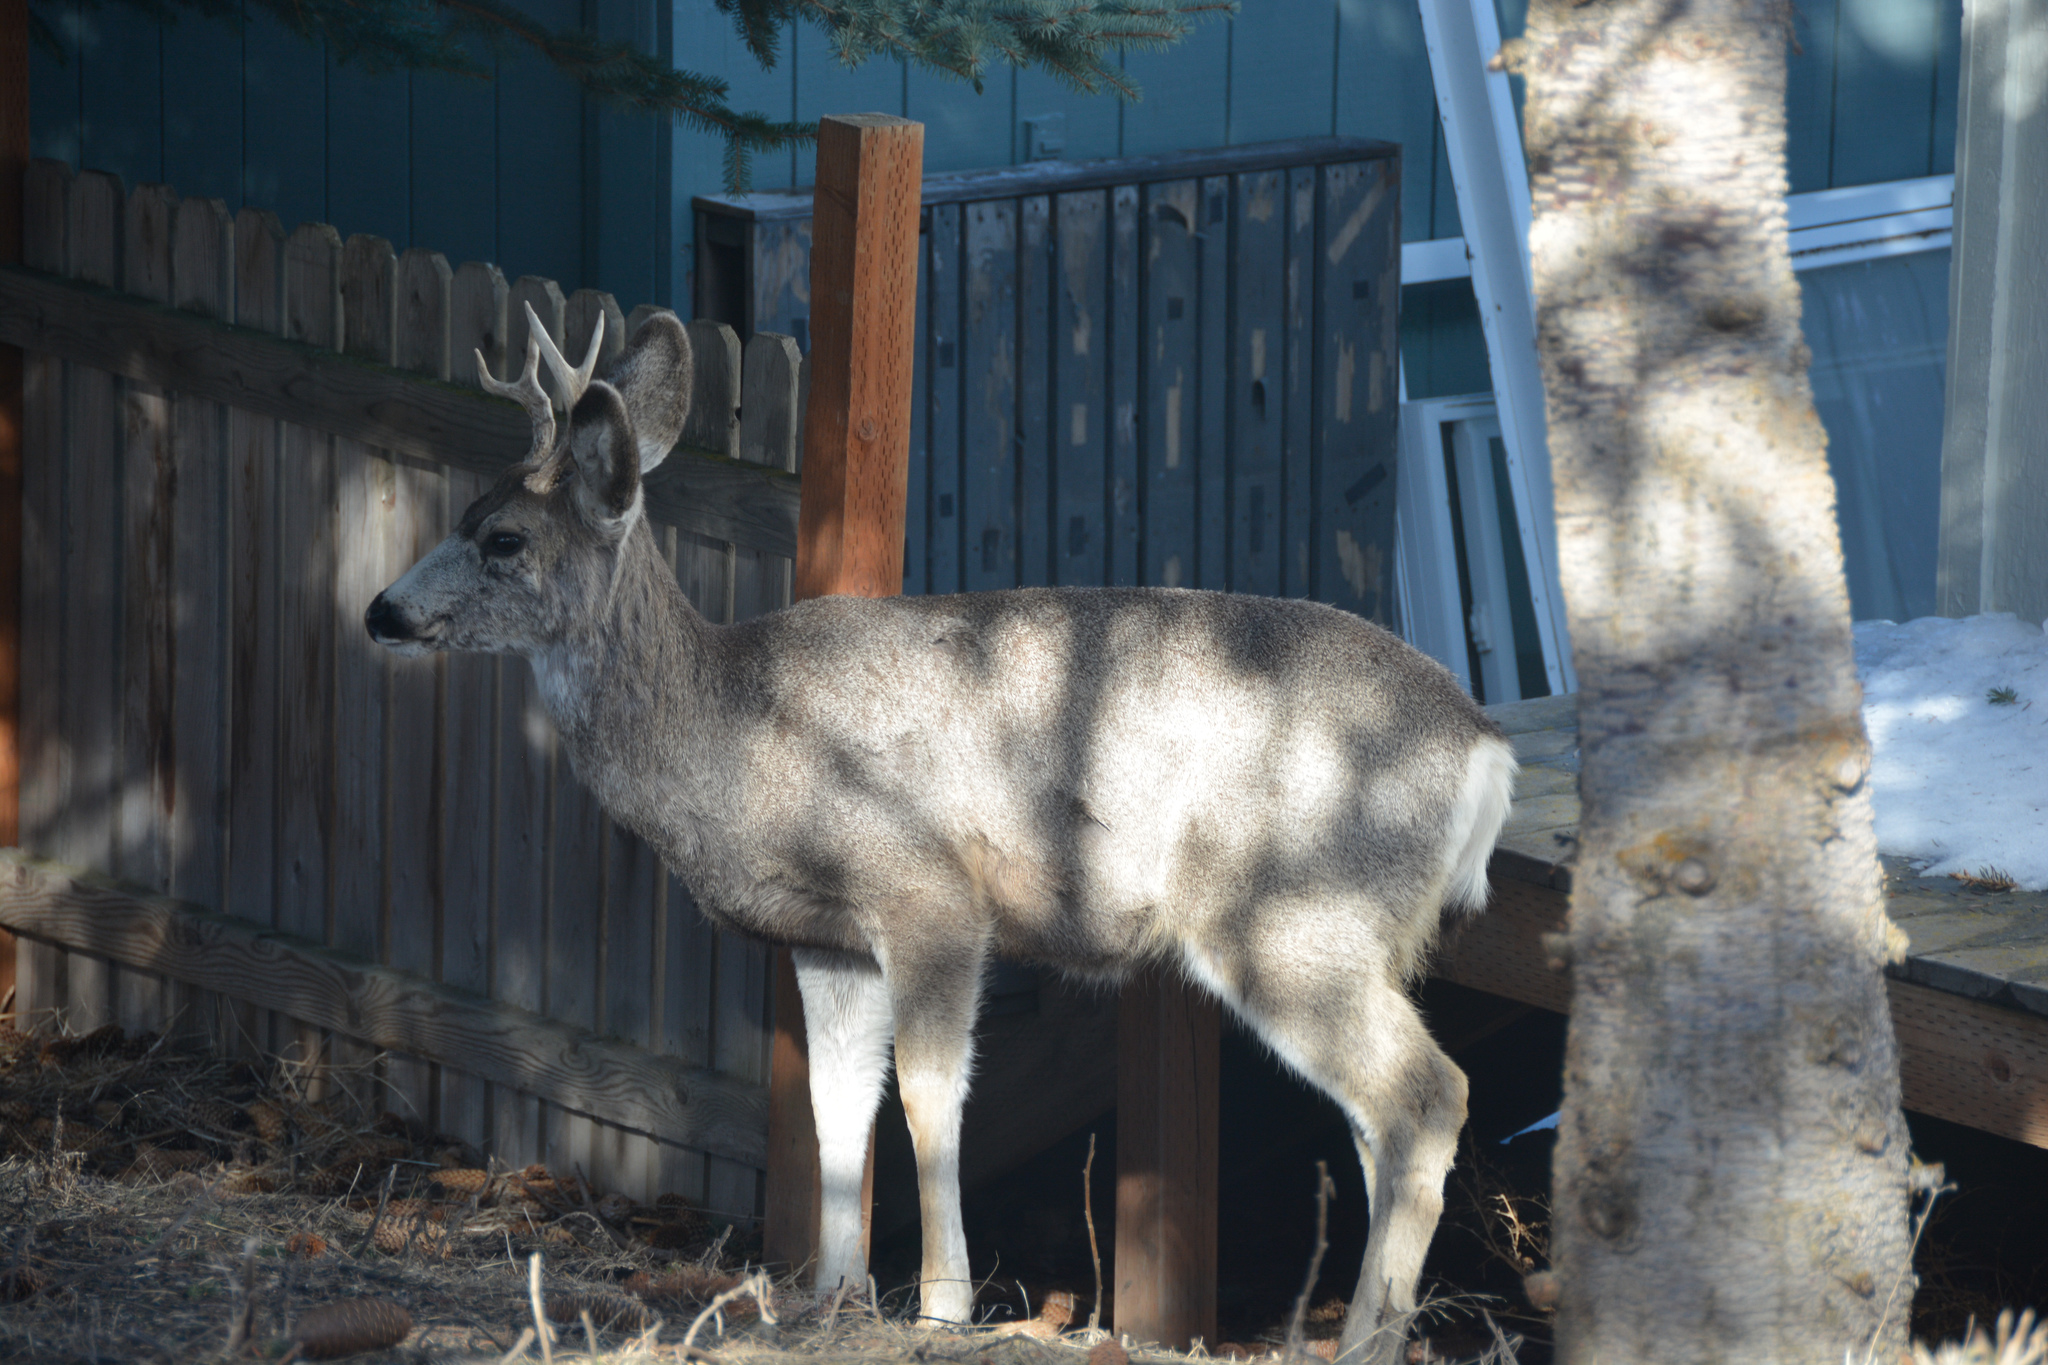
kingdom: Animalia
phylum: Chordata
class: Mammalia
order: Artiodactyla
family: Cervidae
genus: Odocoileus
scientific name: Odocoileus hemionus
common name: Mule deer
